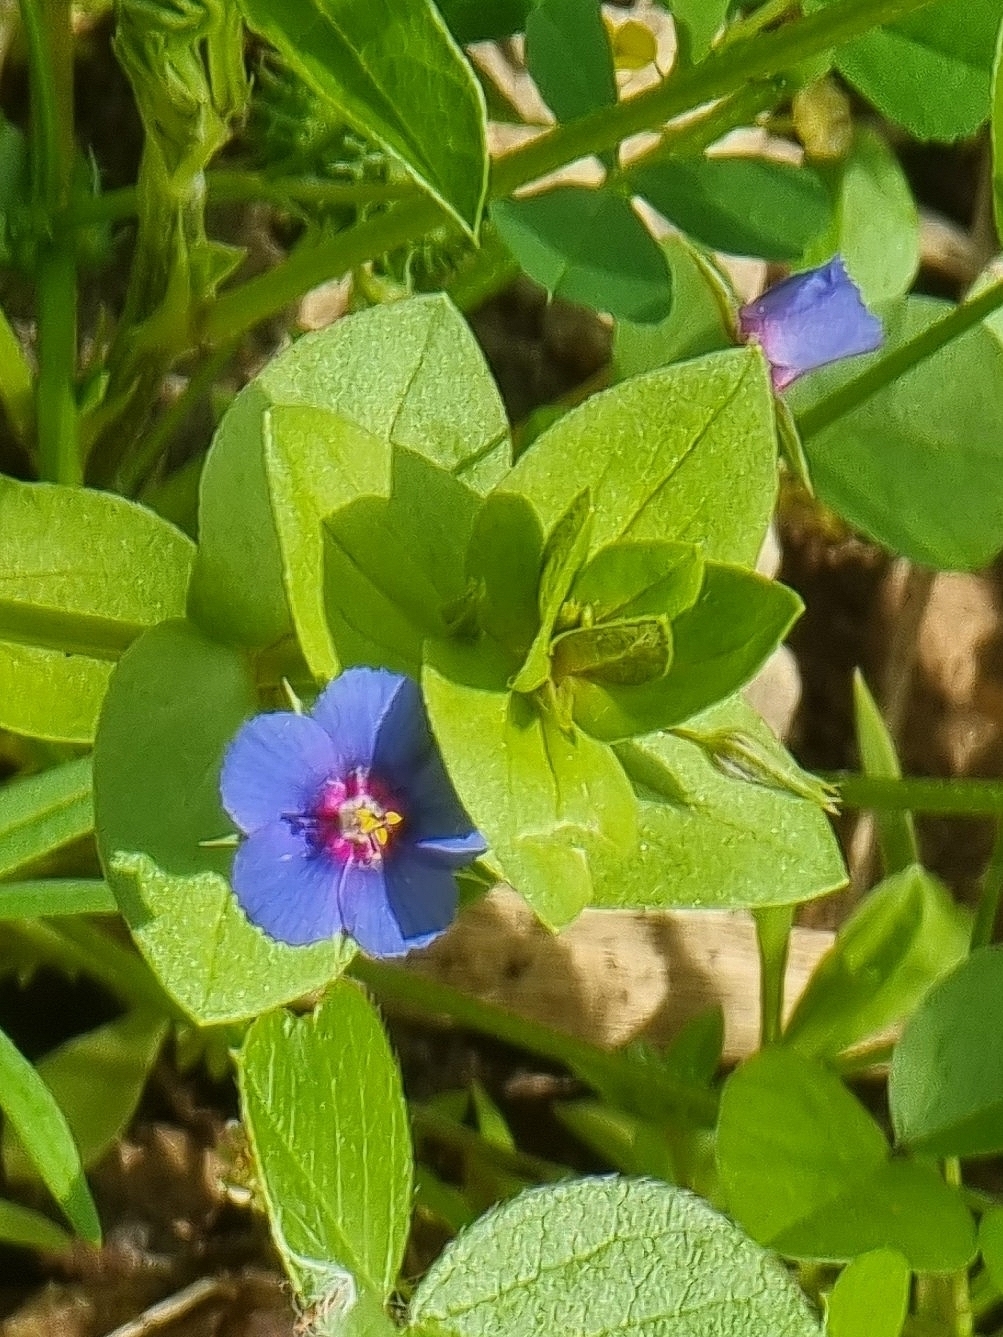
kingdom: Plantae
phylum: Tracheophyta
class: Magnoliopsida
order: Ericales
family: Primulaceae
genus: Lysimachia
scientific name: Lysimachia loeflingii
